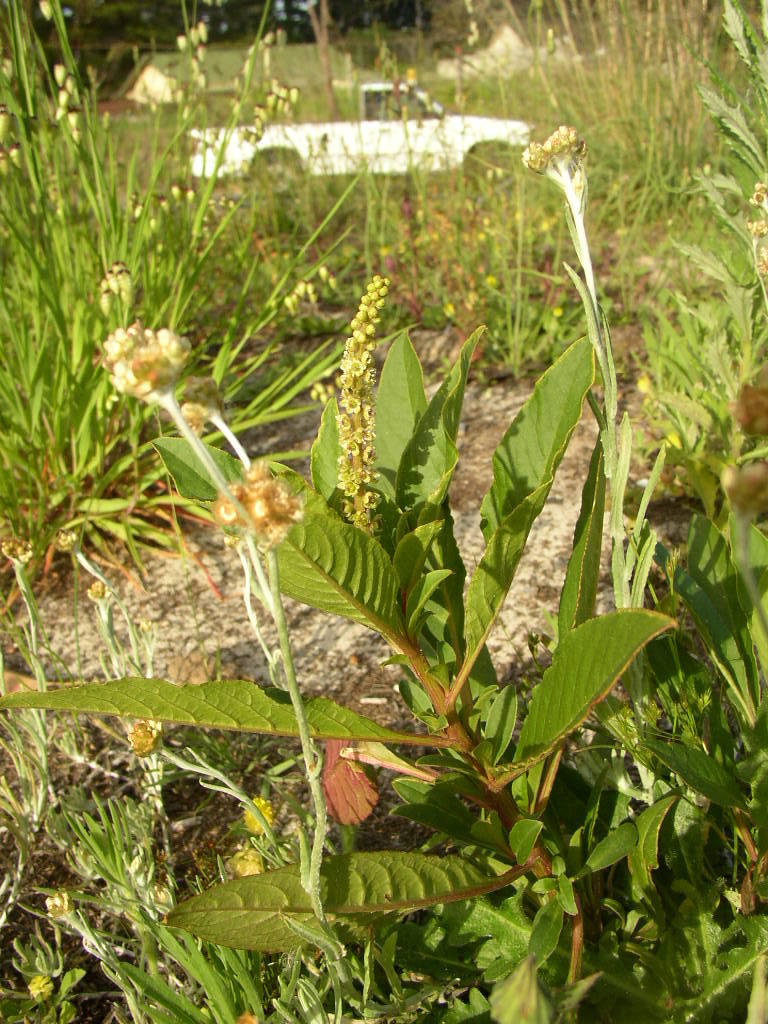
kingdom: Plantae
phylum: Tracheophyta
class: Magnoliopsida
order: Caryophyllales
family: Phytolaccaceae
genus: Phytolacca
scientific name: Phytolacca icosandra
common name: Button pokeweed
